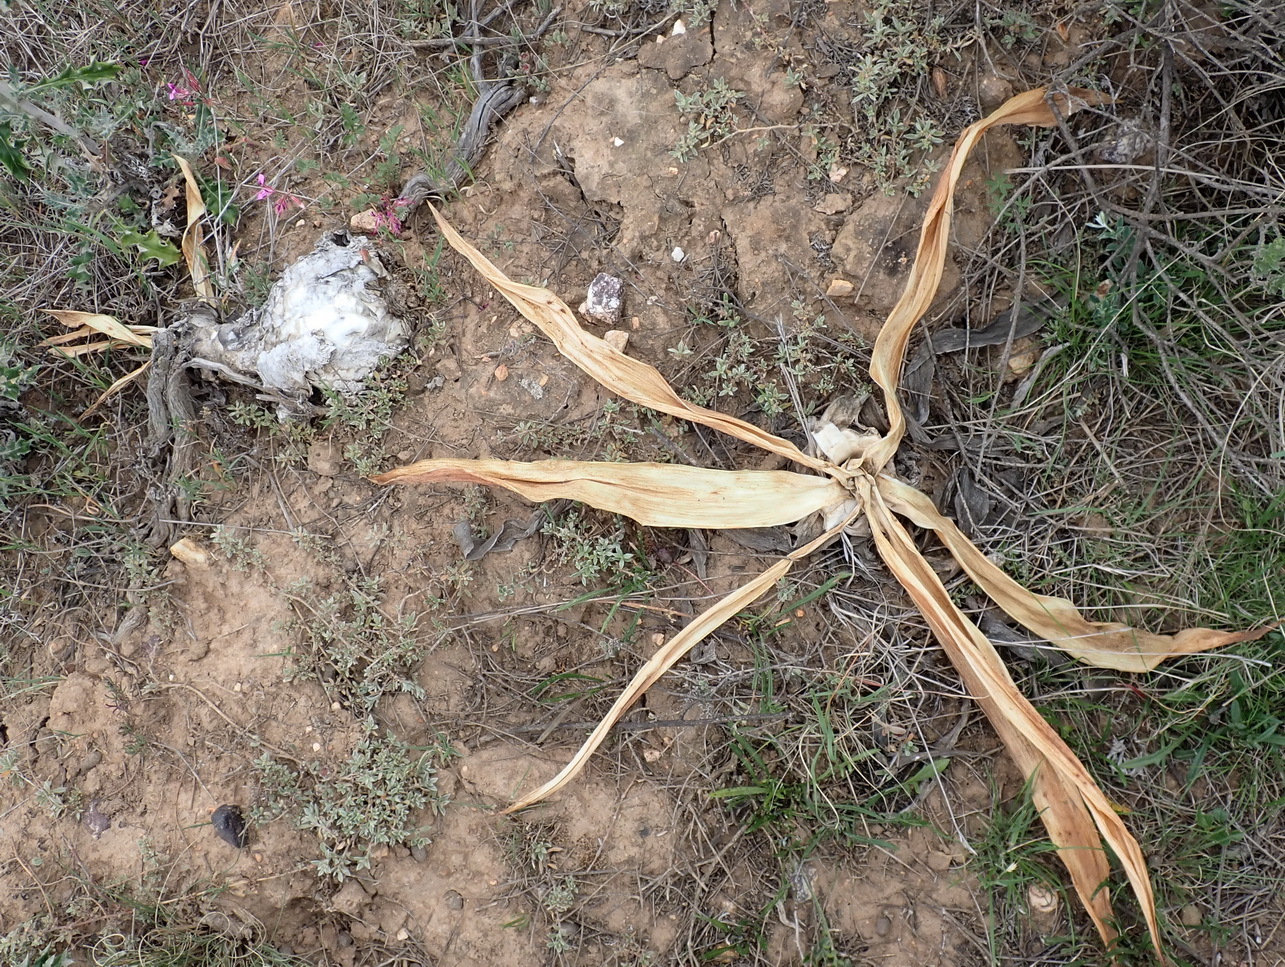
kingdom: Plantae
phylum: Tracheophyta
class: Liliopsida
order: Asparagales
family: Asparagaceae
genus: Drimia
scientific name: Drimia capensis
